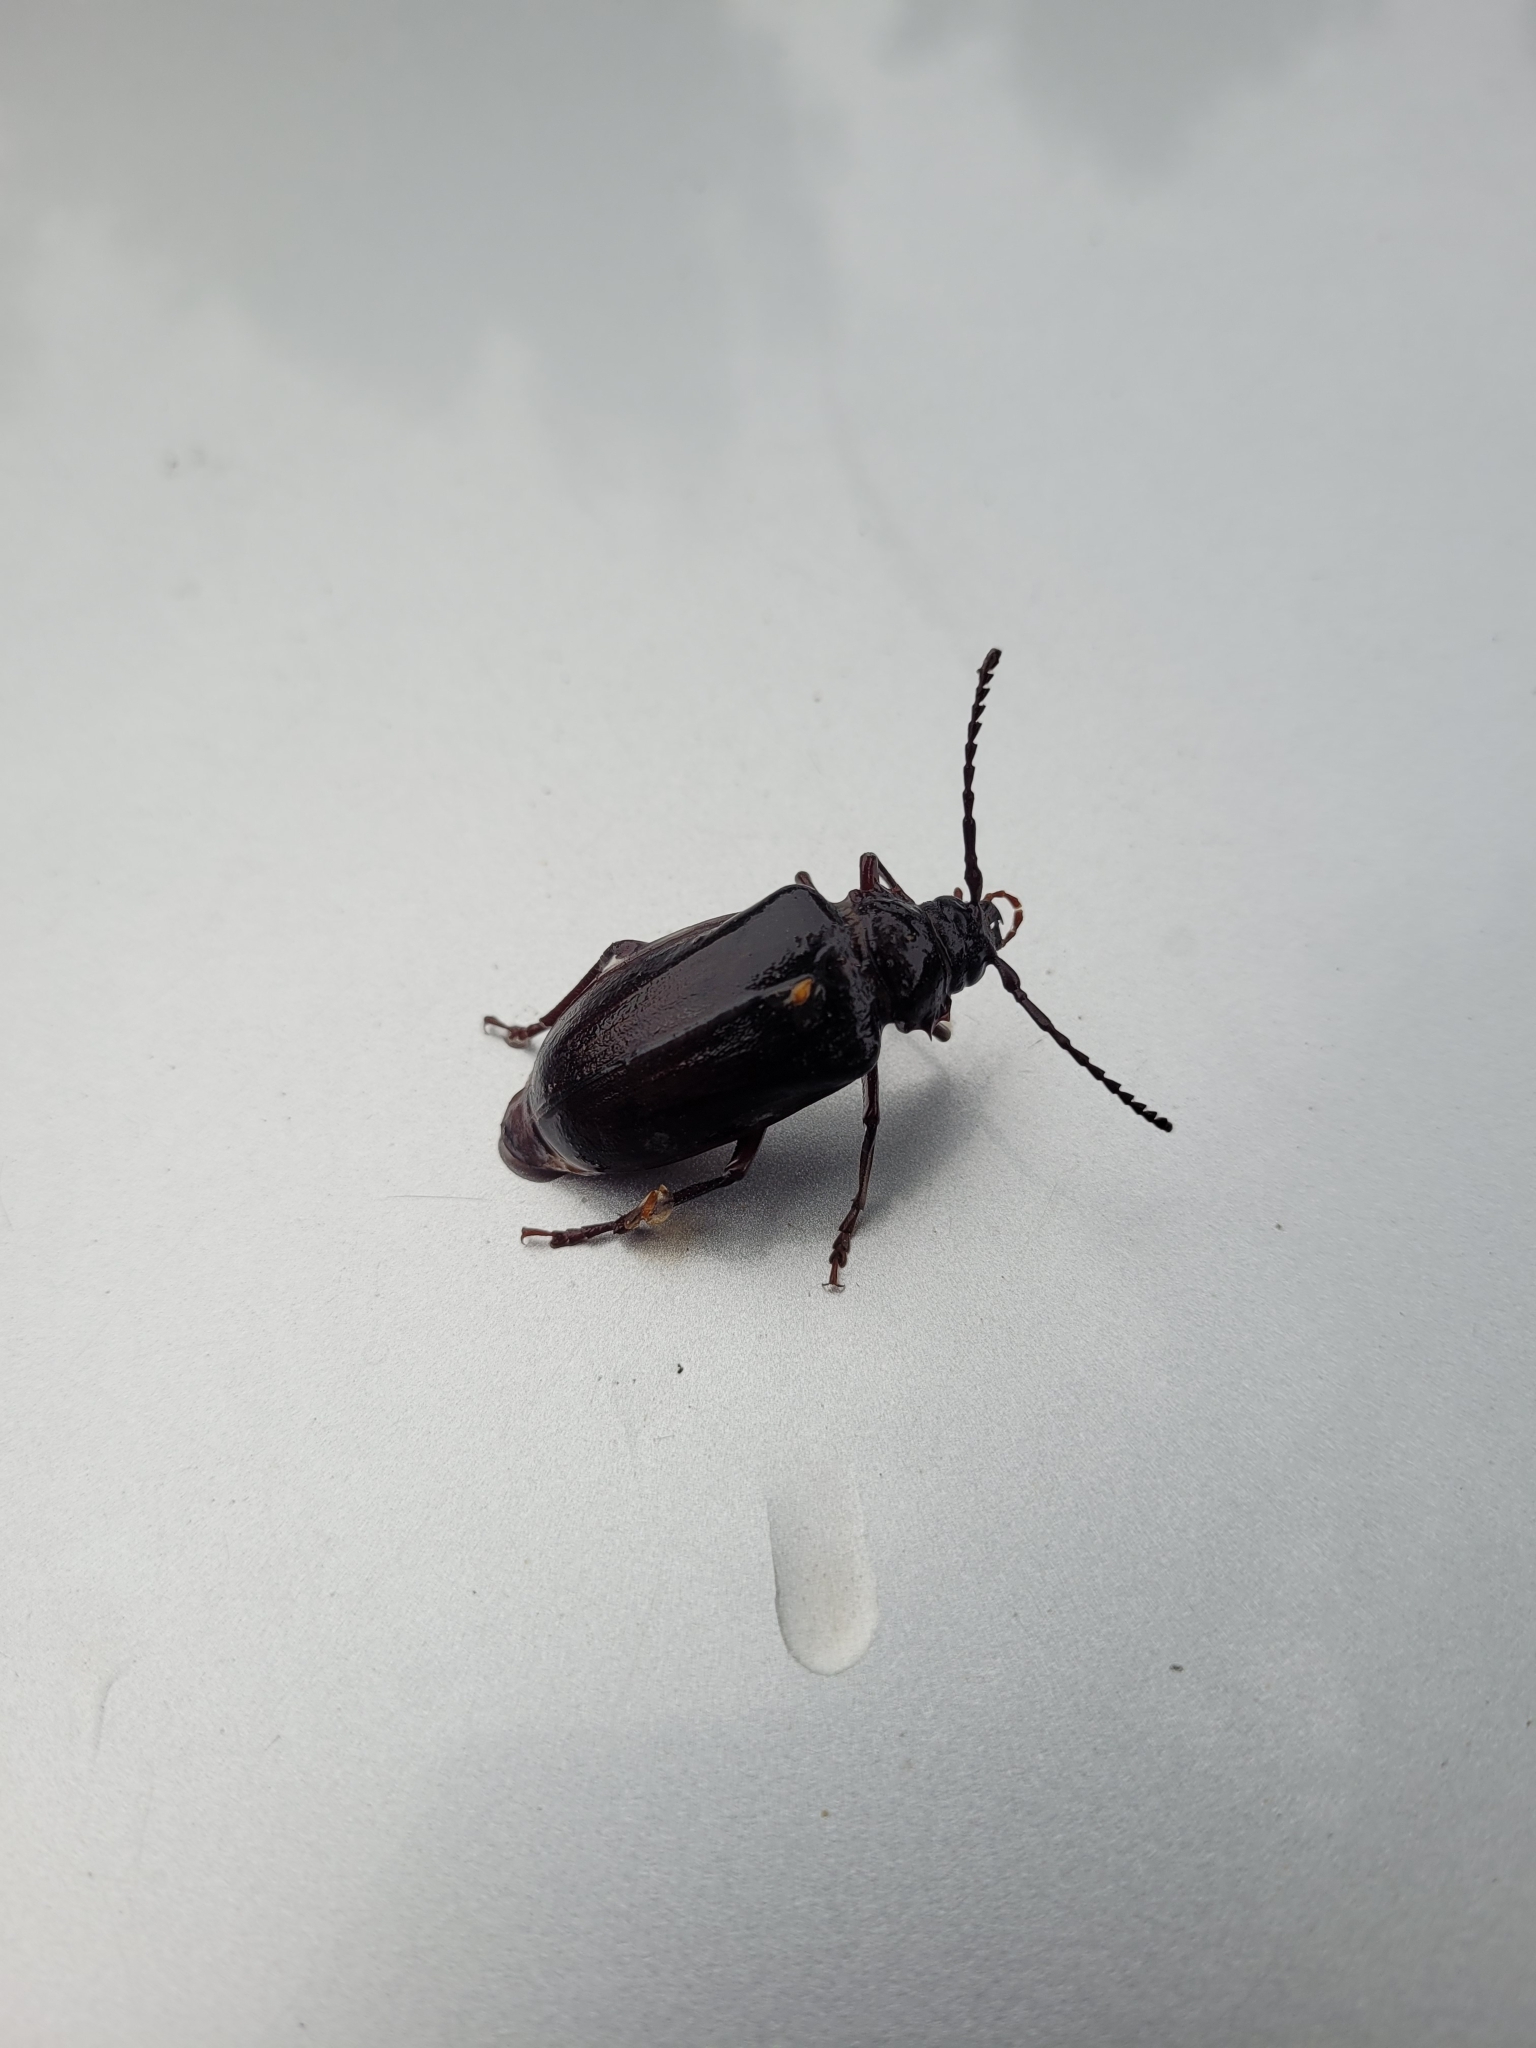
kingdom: Animalia
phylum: Arthropoda
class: Insecta
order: Coleoptera
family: Cerambycidae
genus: Prionus
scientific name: Prionus coriarius
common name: Tanner beetle
